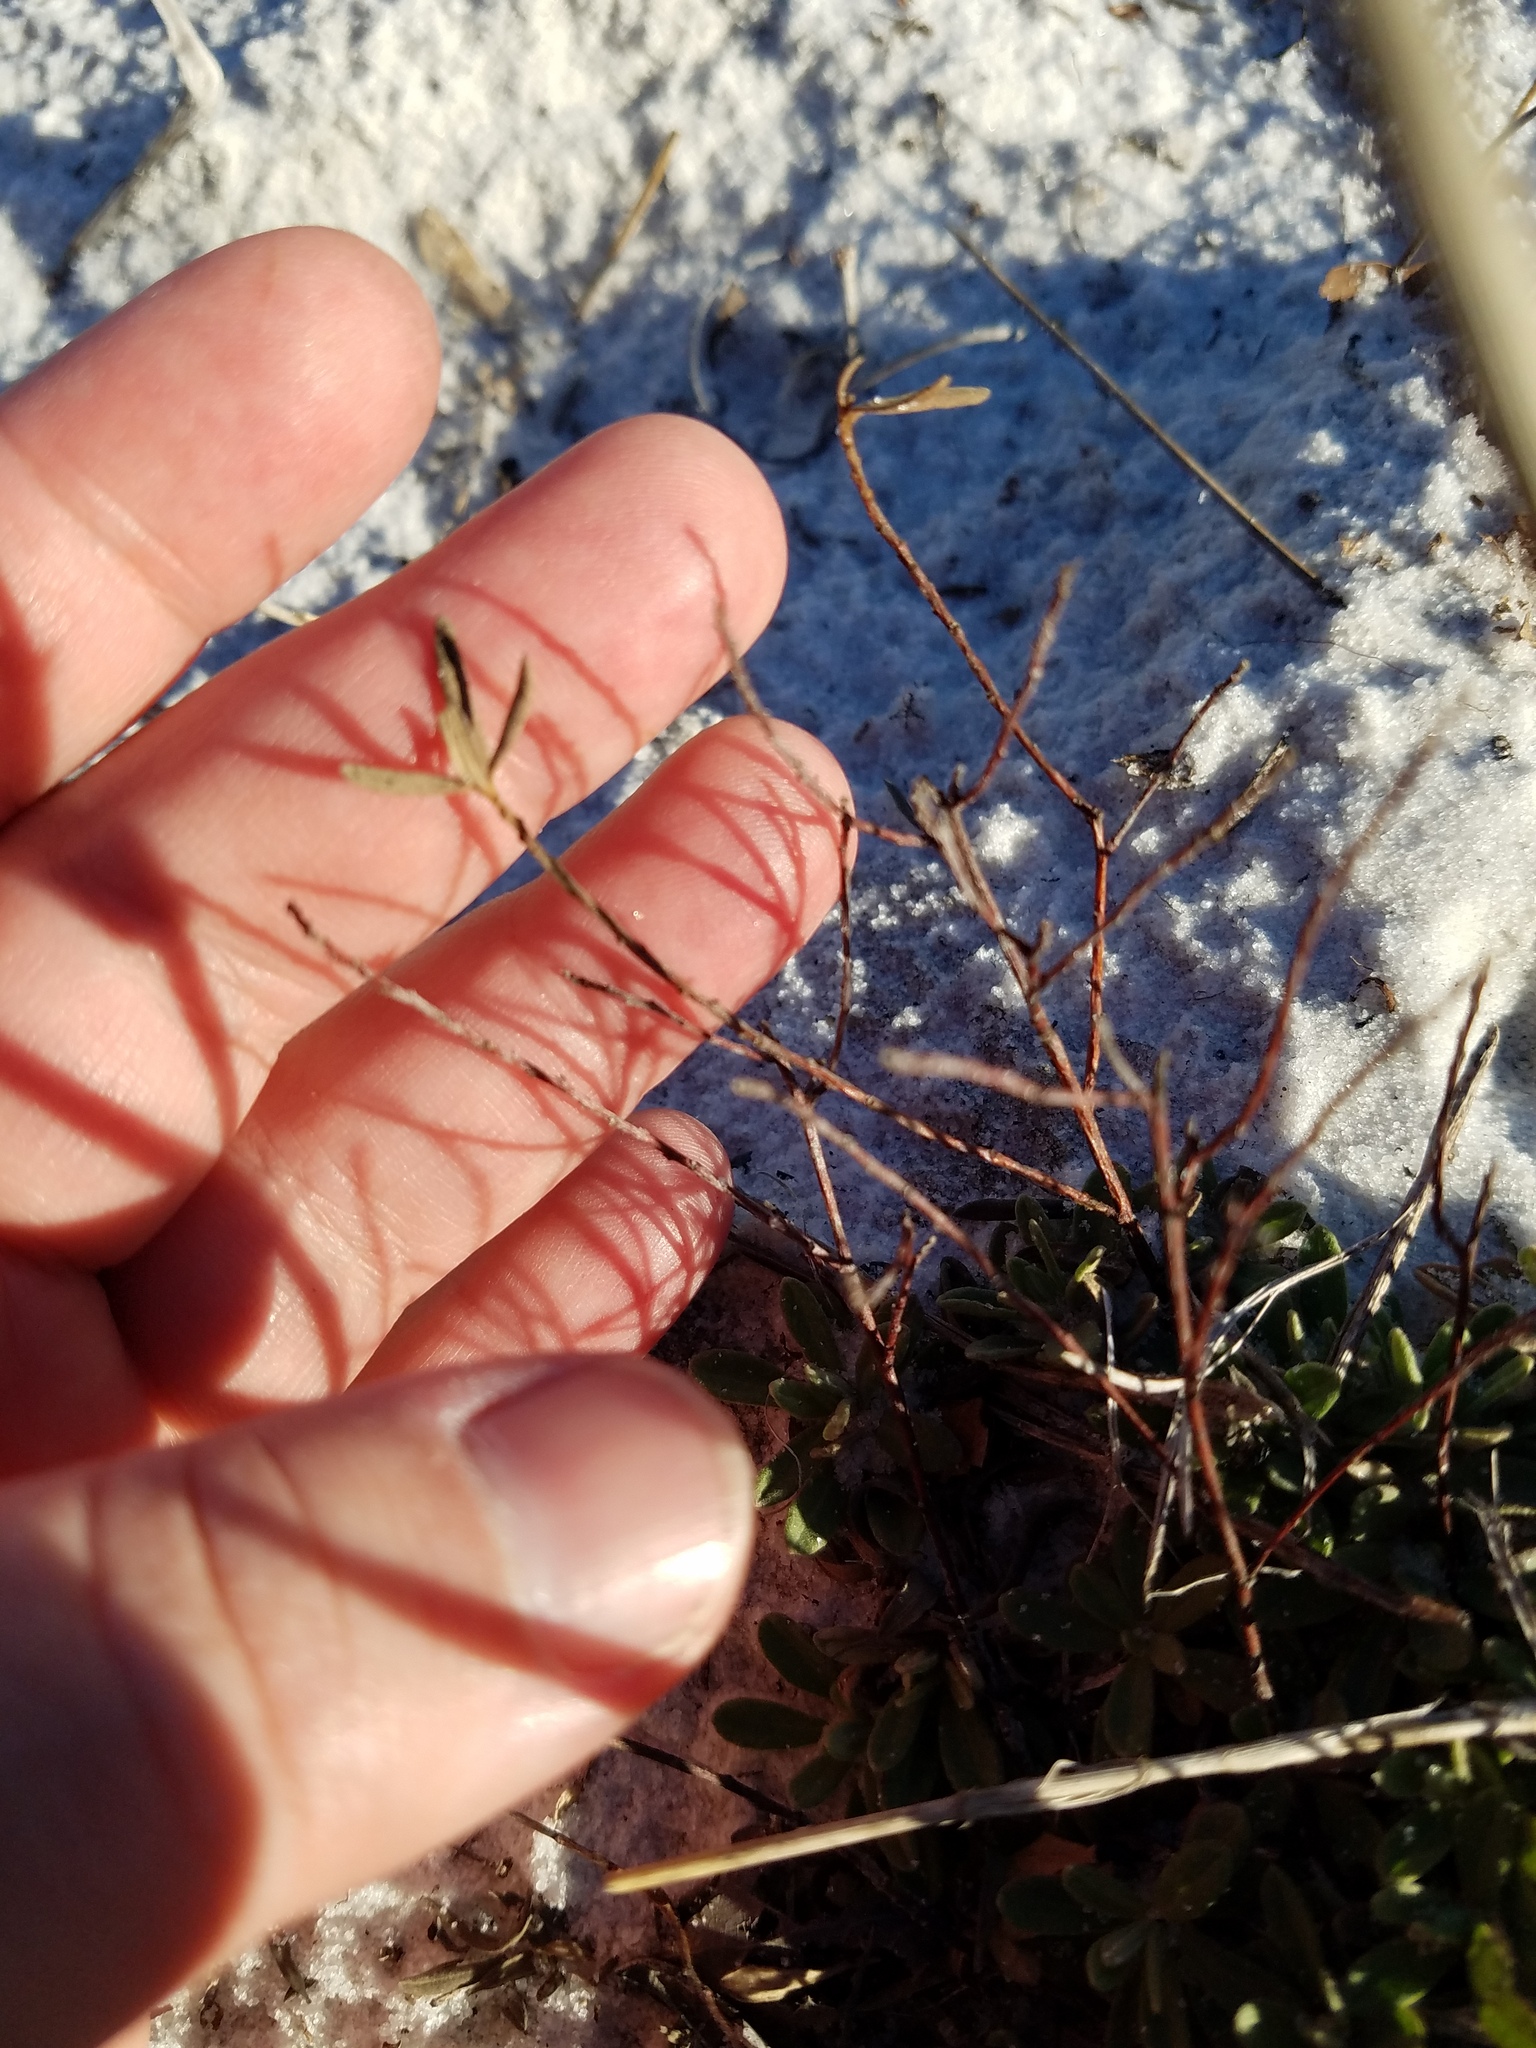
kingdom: Plantae
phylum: Tracheophyta
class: Magnoliopsida
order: Malvales
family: Cistaceae
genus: Crocanthemum
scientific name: Crocanthemum arenicola
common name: Gulf coast frostweed
